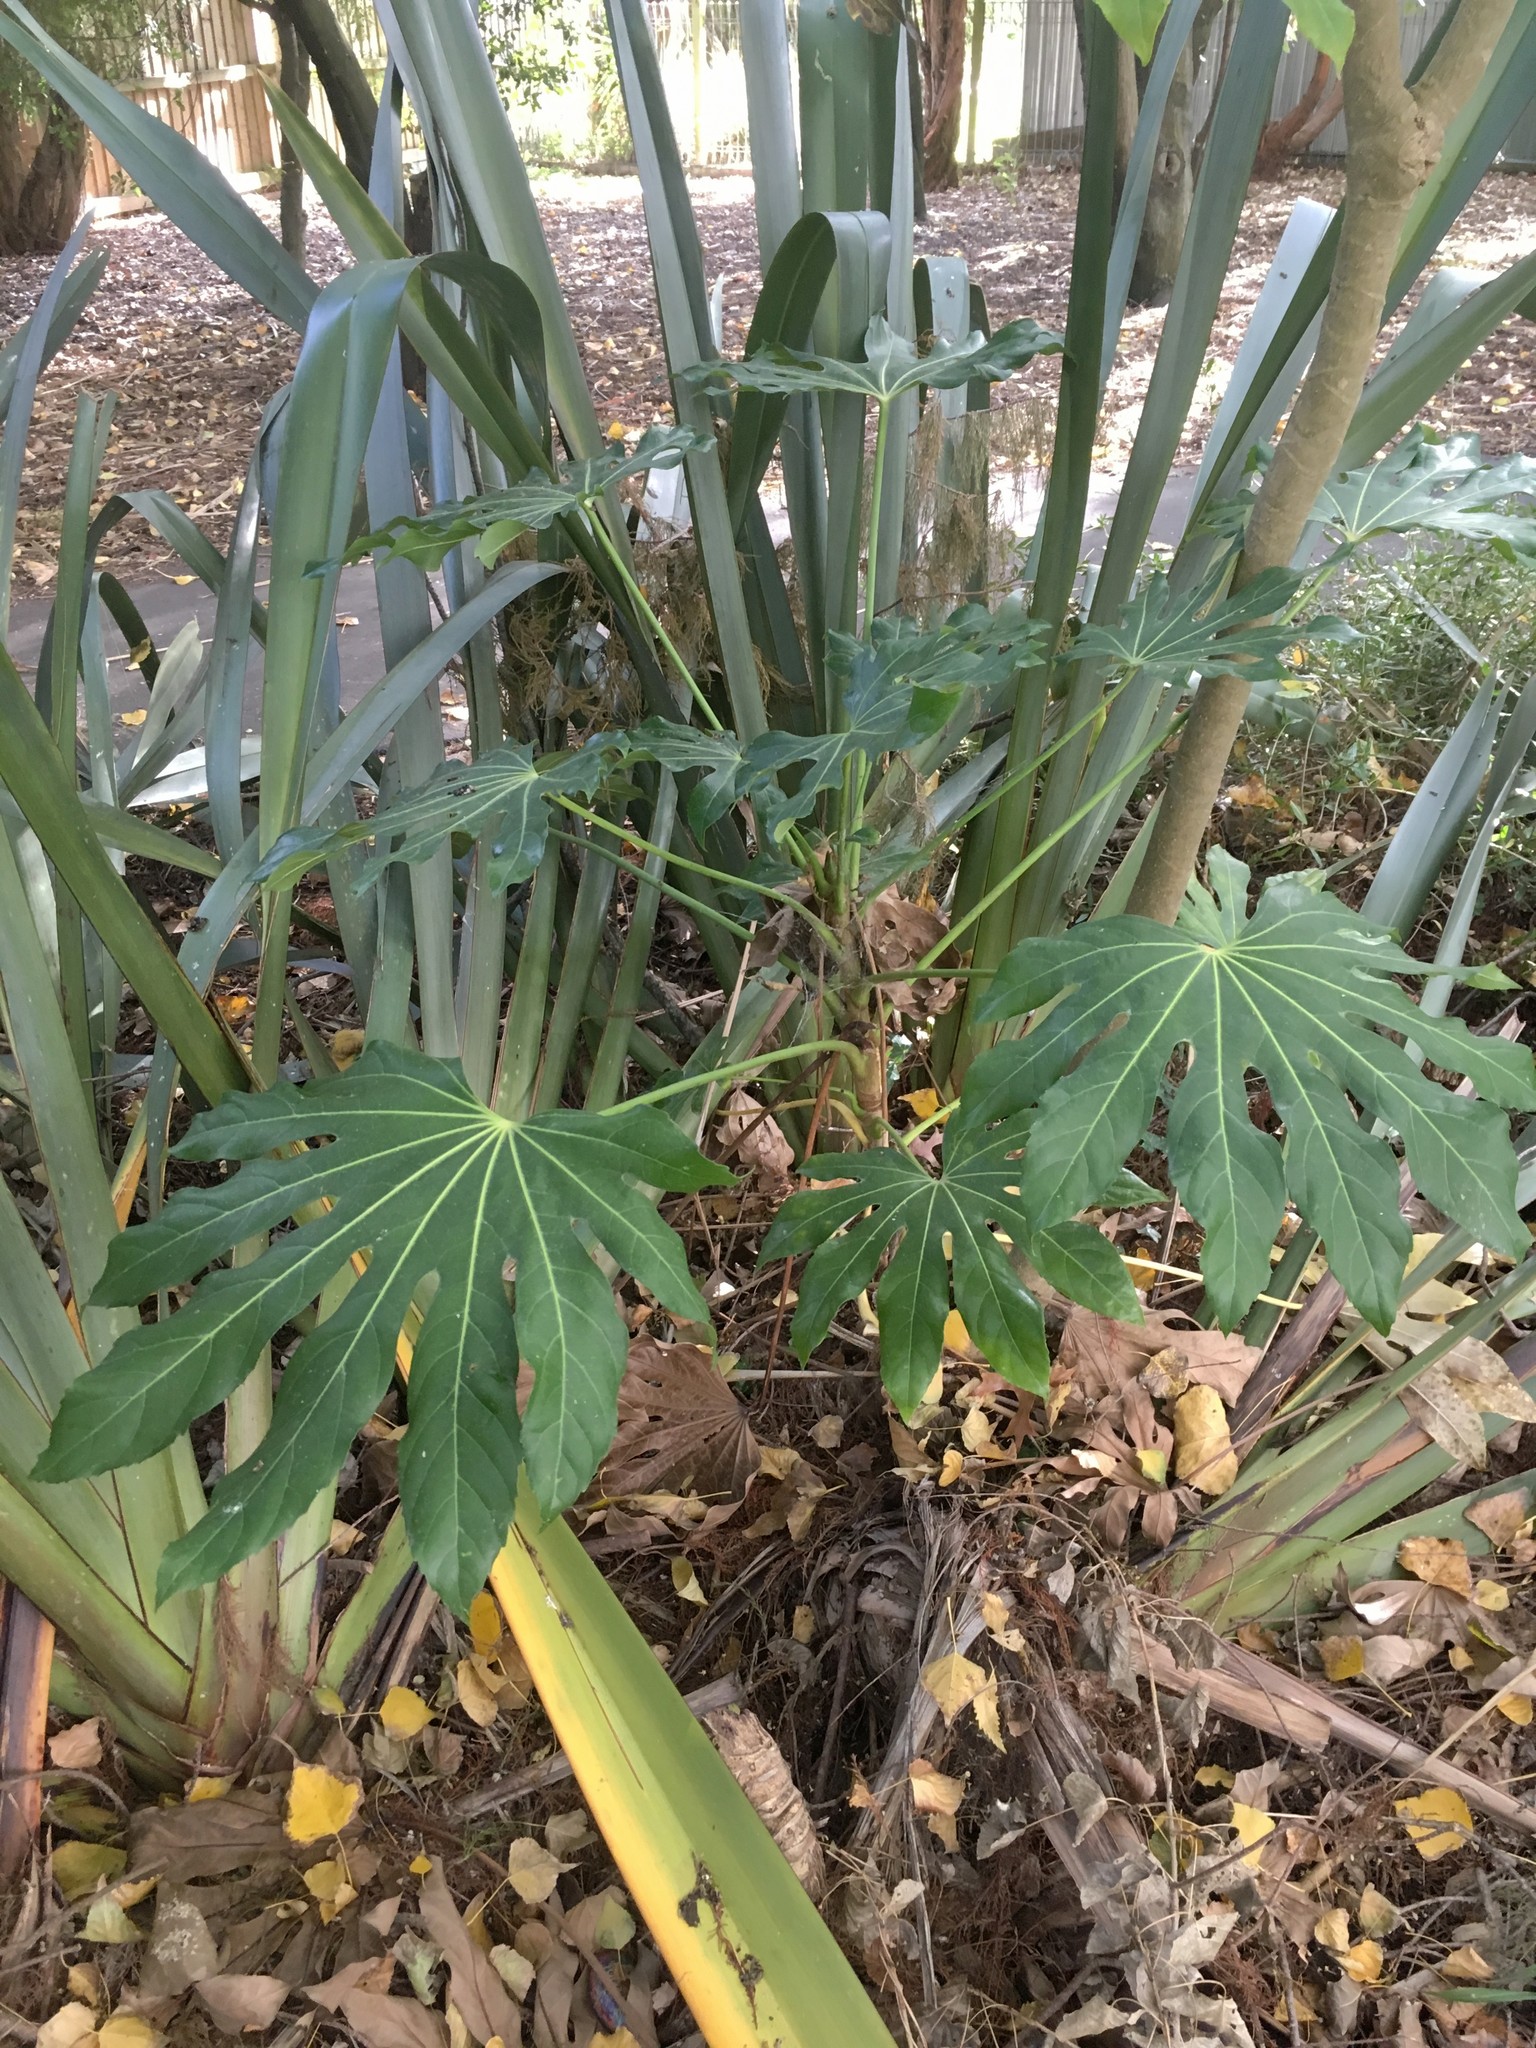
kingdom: Plantae
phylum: Tracheophyta
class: Magnoliopsida
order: Apiales
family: Araliaceae
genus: Fatsia
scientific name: Fatsia japonica
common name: Fatsia
